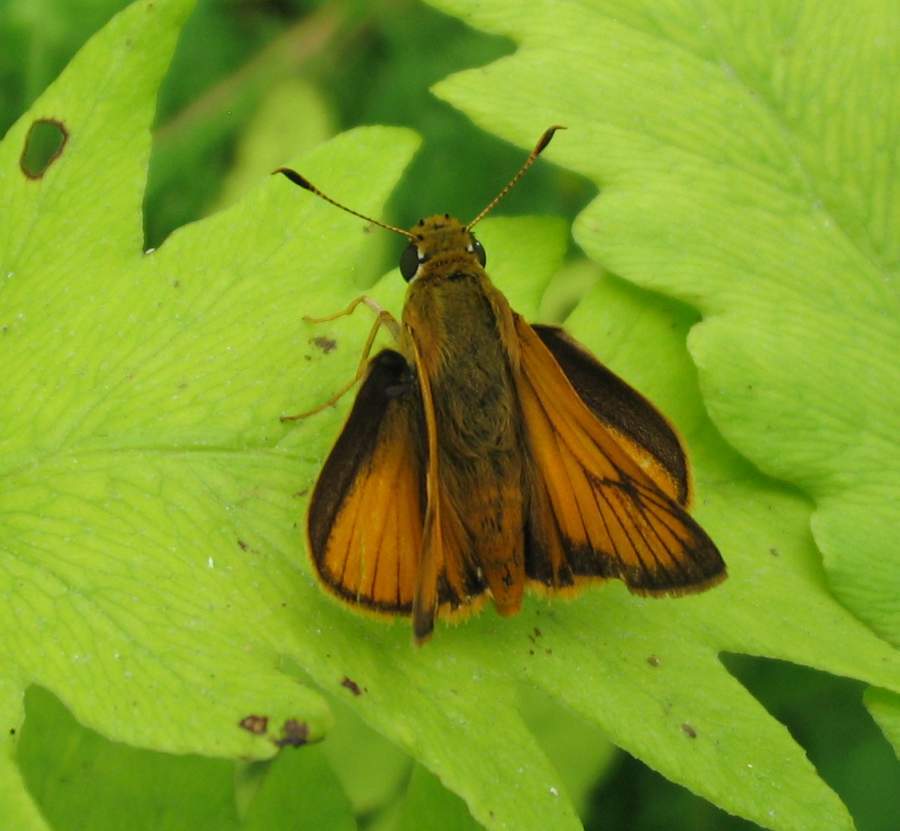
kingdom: Animalia
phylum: Arthropoda
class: Insecta
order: Lepidoptera
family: Hesperiidae
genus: Atrytone
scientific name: Atrytone delaware
